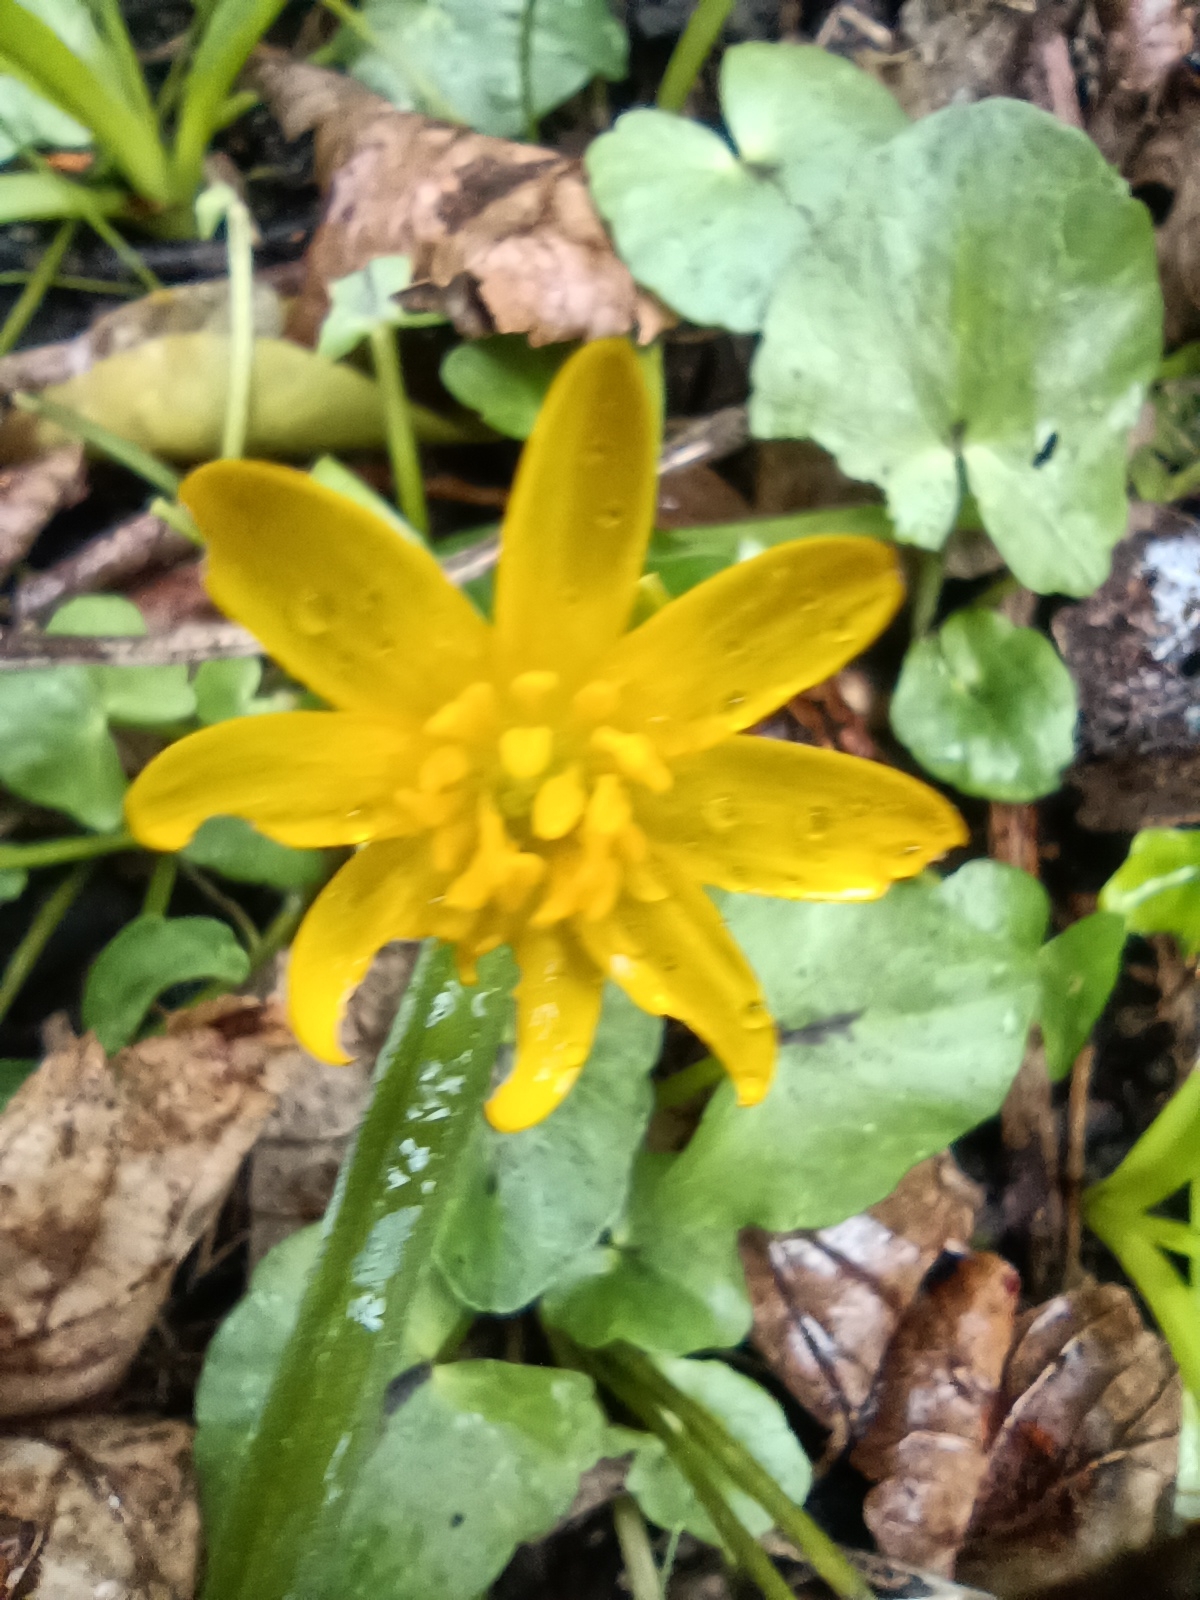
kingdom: Plantae
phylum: Tracheophyta
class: Magnoliopsida
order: Ranunculales
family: Ranunculaceae
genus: Ficaria
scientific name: Ficaria verna
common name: Lesser celandine
